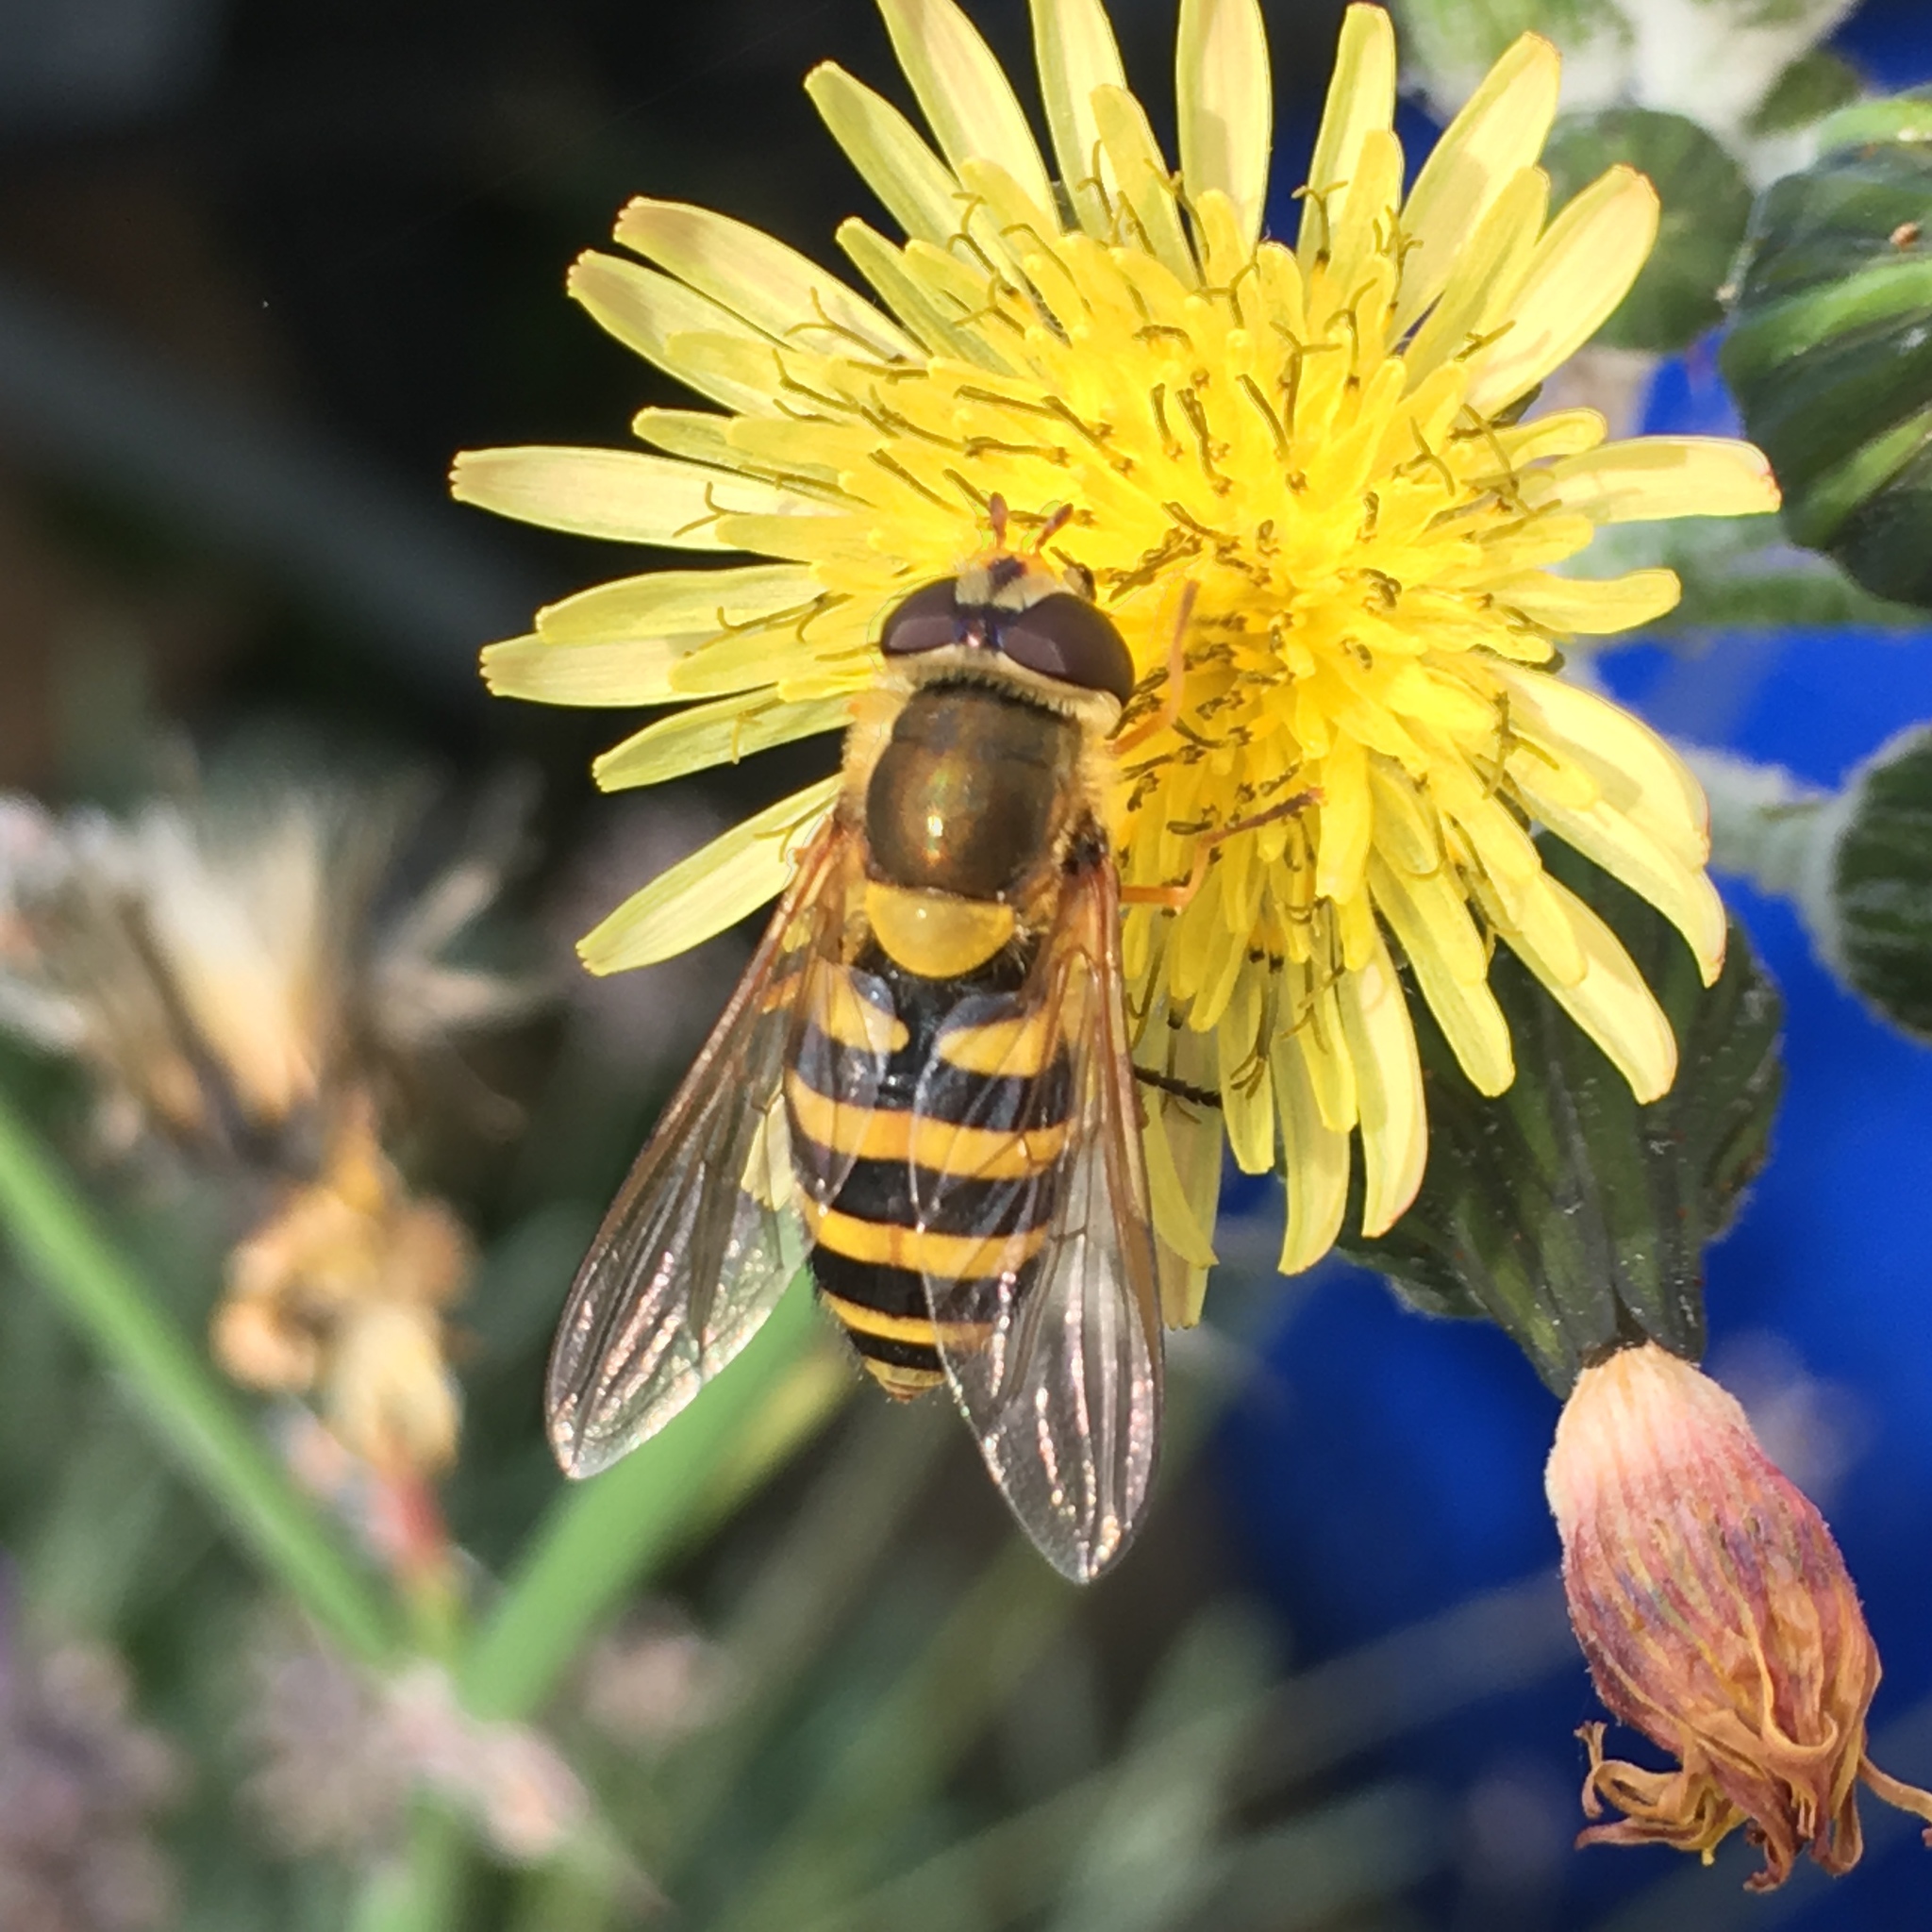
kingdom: Animalia
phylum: Arthropoda
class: Insecta
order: Diptera
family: Syrphidae
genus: Syrphus
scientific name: Syrphus
